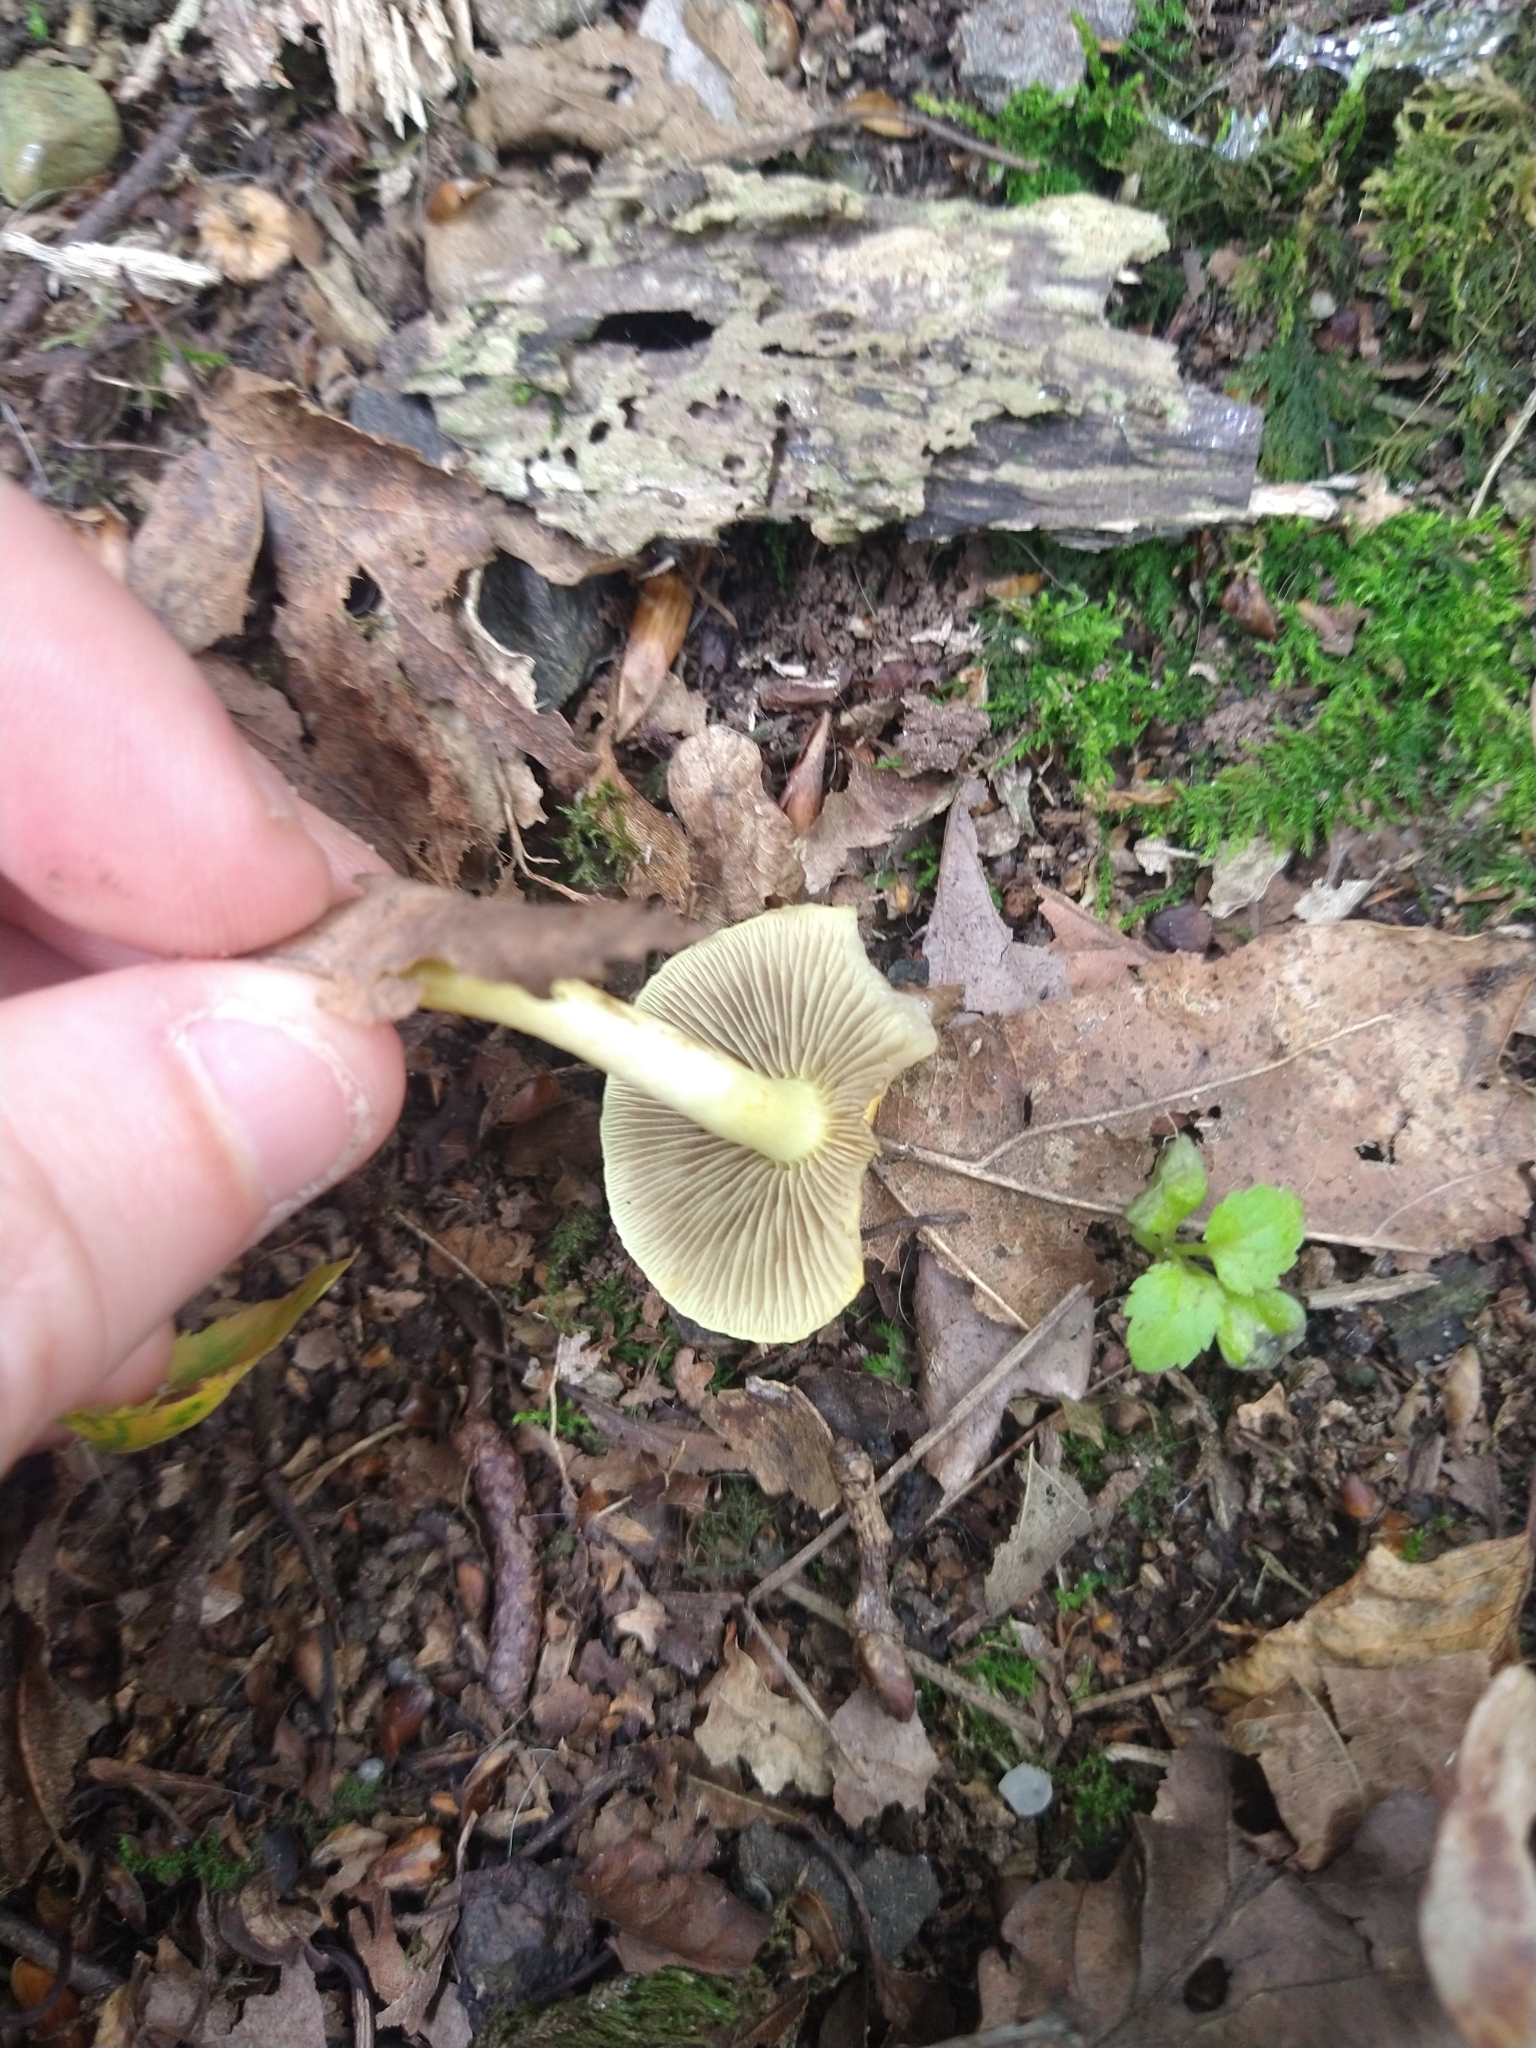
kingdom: Fungi
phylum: Basidiomycota
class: Agaricomycetes
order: Agaricales
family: Strophariaceae
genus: Hypholoma
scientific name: Hypholoma fasciculare
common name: Sulphur tuft
